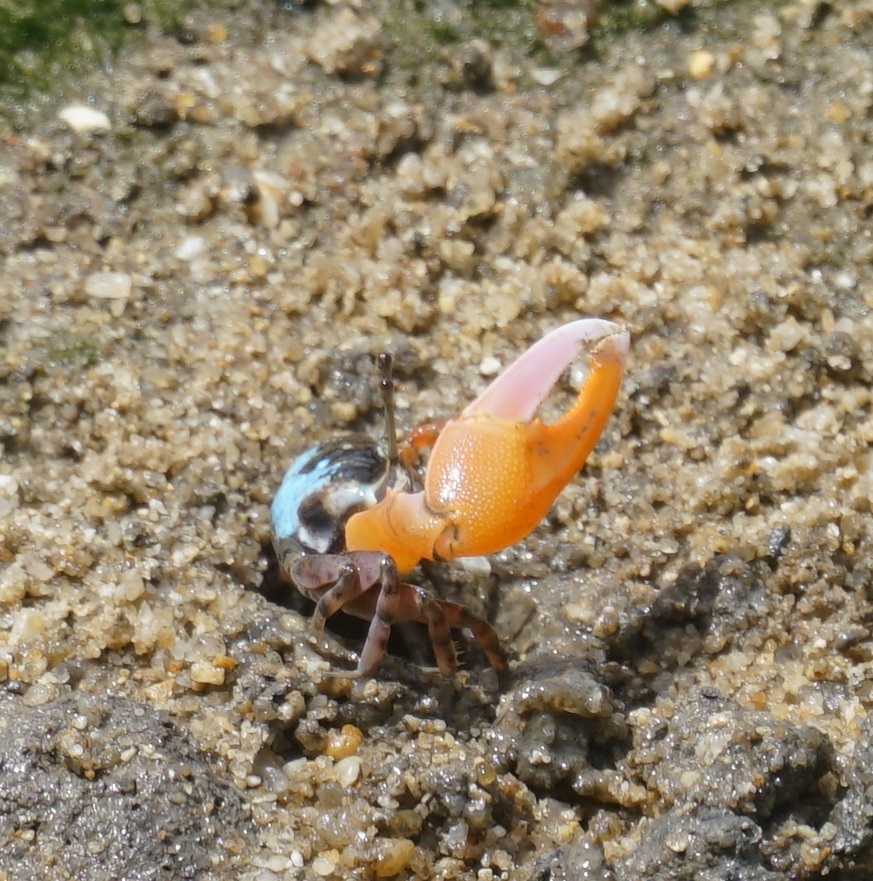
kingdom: Animalia
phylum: Arthropoda
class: Malacostraca
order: Decapoda
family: Ocypodidae
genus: Gelasimus
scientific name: Gelasimus vomeris
